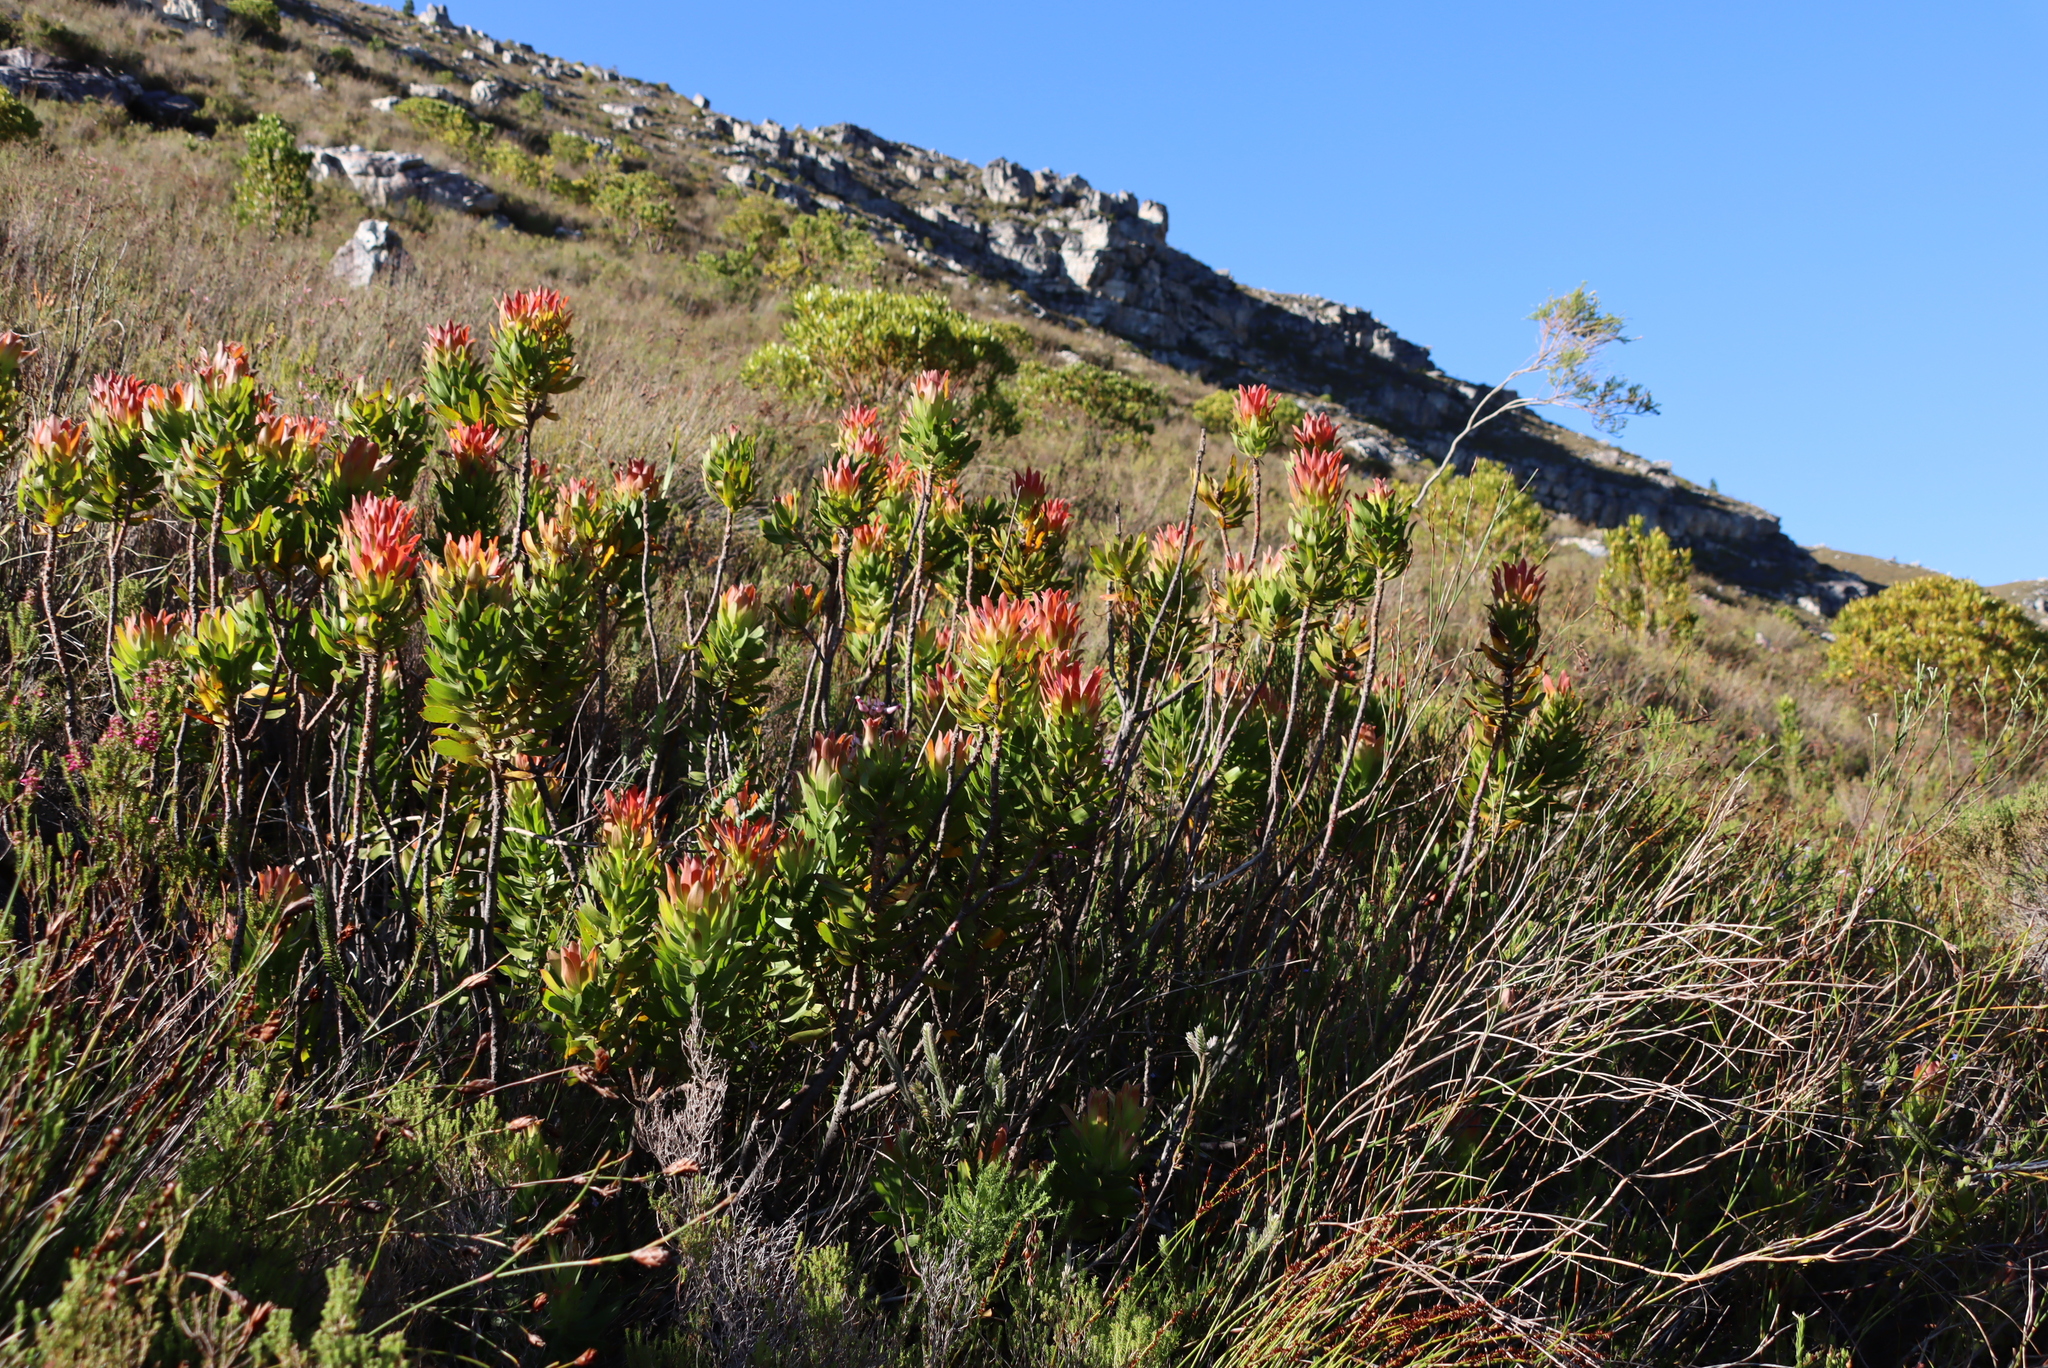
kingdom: Plantae
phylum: Tracheophyta
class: Magnoliopsida
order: Proteales
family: Proteaceae
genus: Mimetes
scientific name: Mimetes cucullatus
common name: Common pagoda
